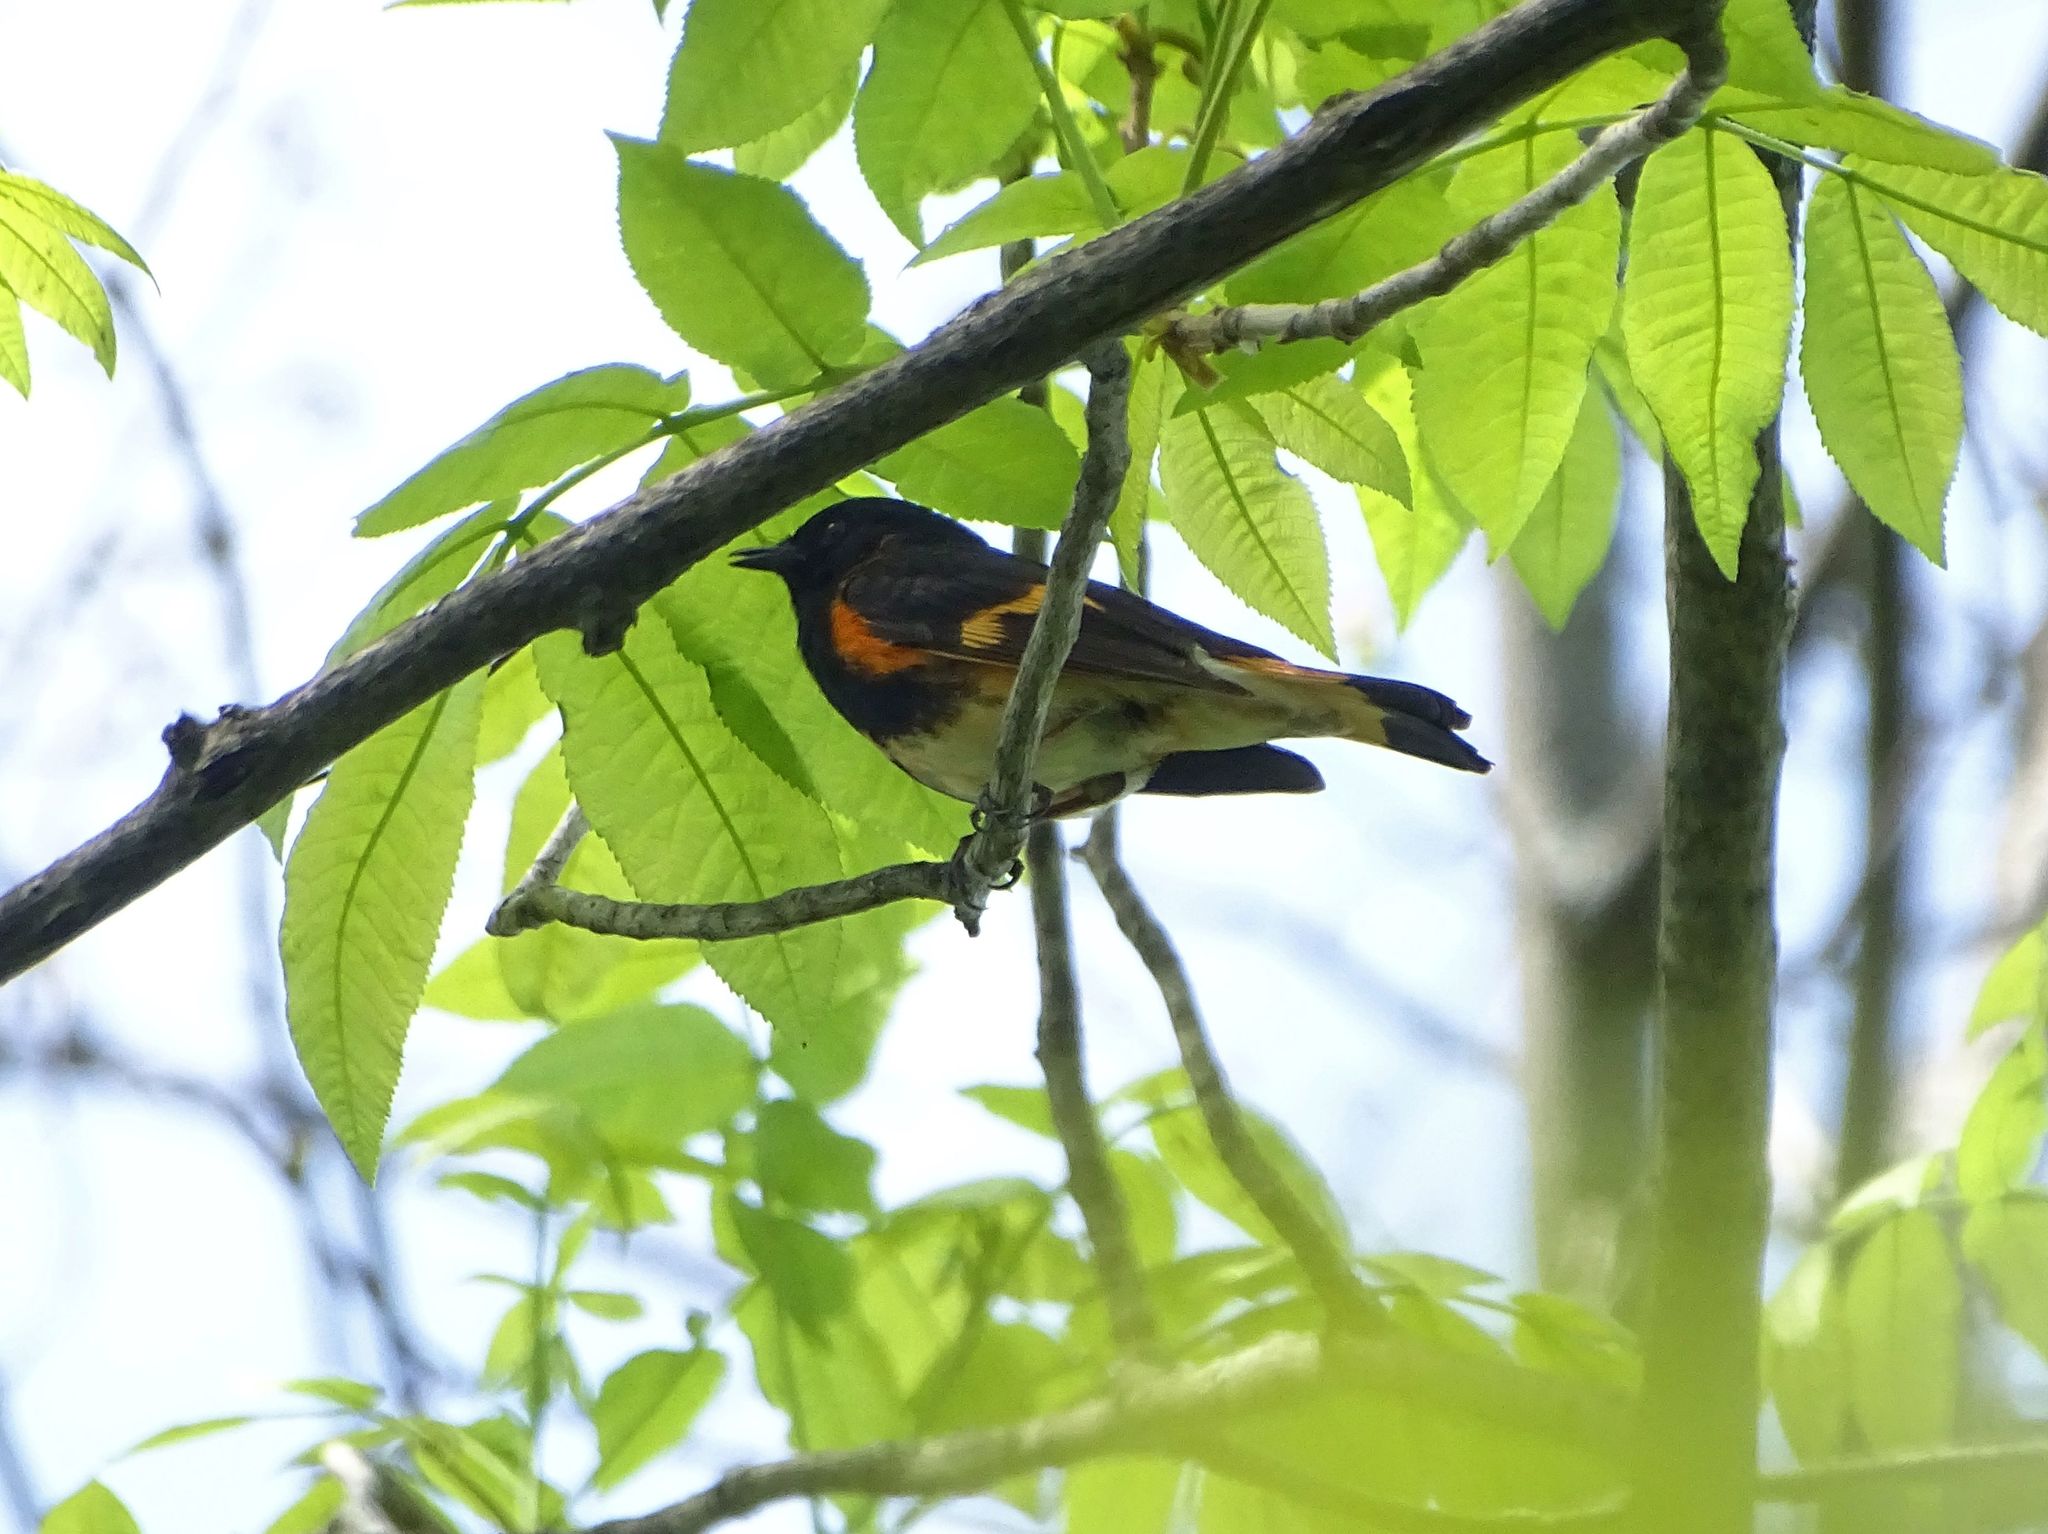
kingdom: Animalia
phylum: Chordata
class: Aves
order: Passeriformes
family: Parulidae
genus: Setophaga
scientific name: Setophaga ruticilla
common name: American redstart
